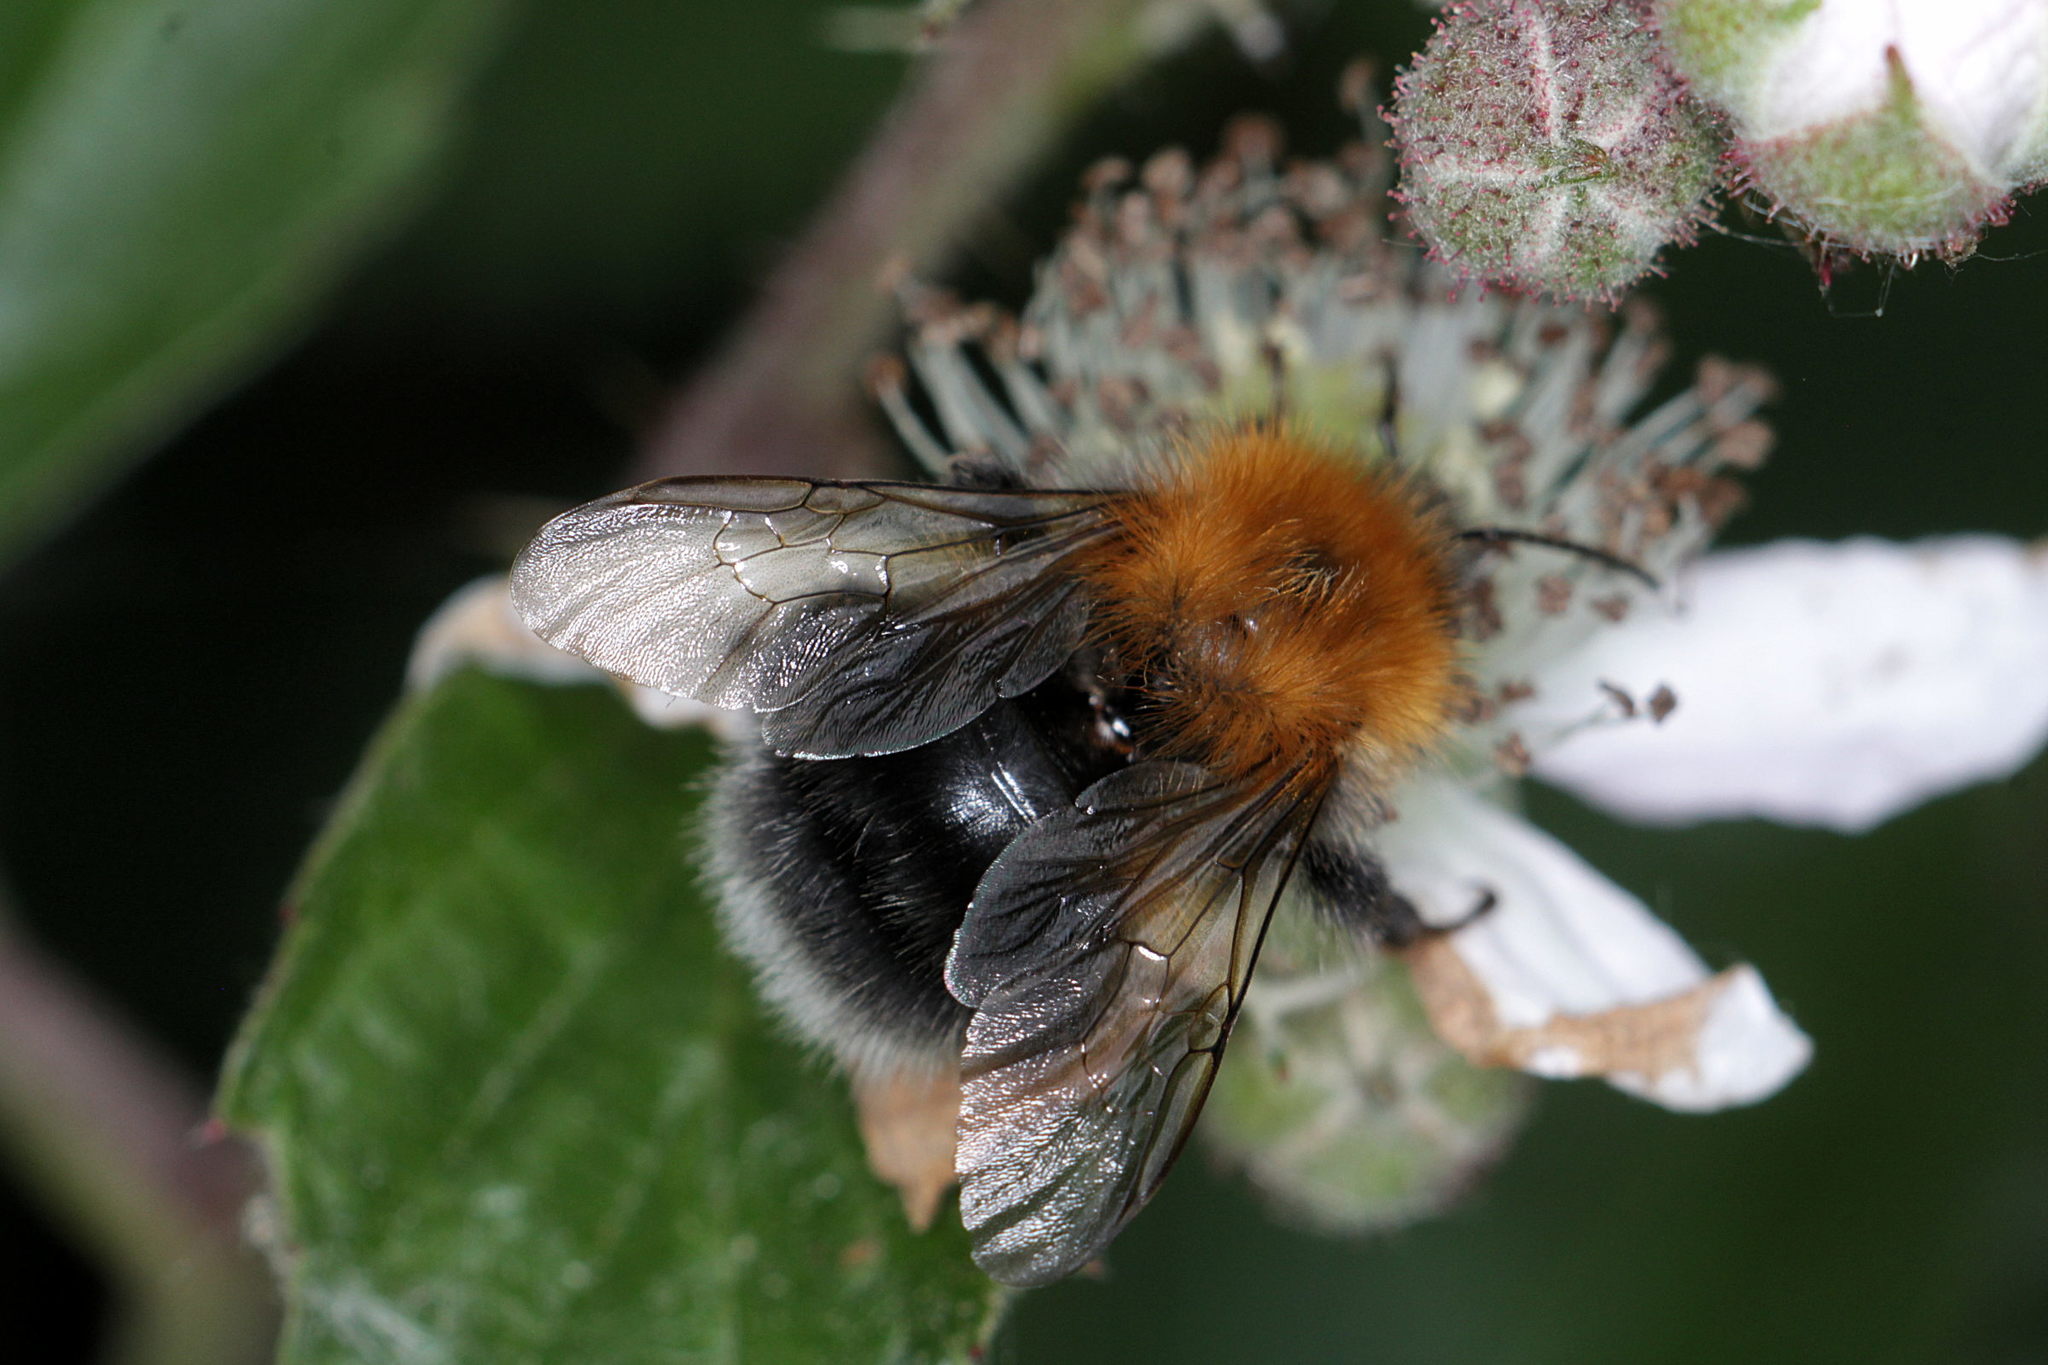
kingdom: Animalia
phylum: Arthropoda
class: Insecta
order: Hymenoptera
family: Apidae
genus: Bombus
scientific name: Bombus hypnorum
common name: New garden bumblebee
